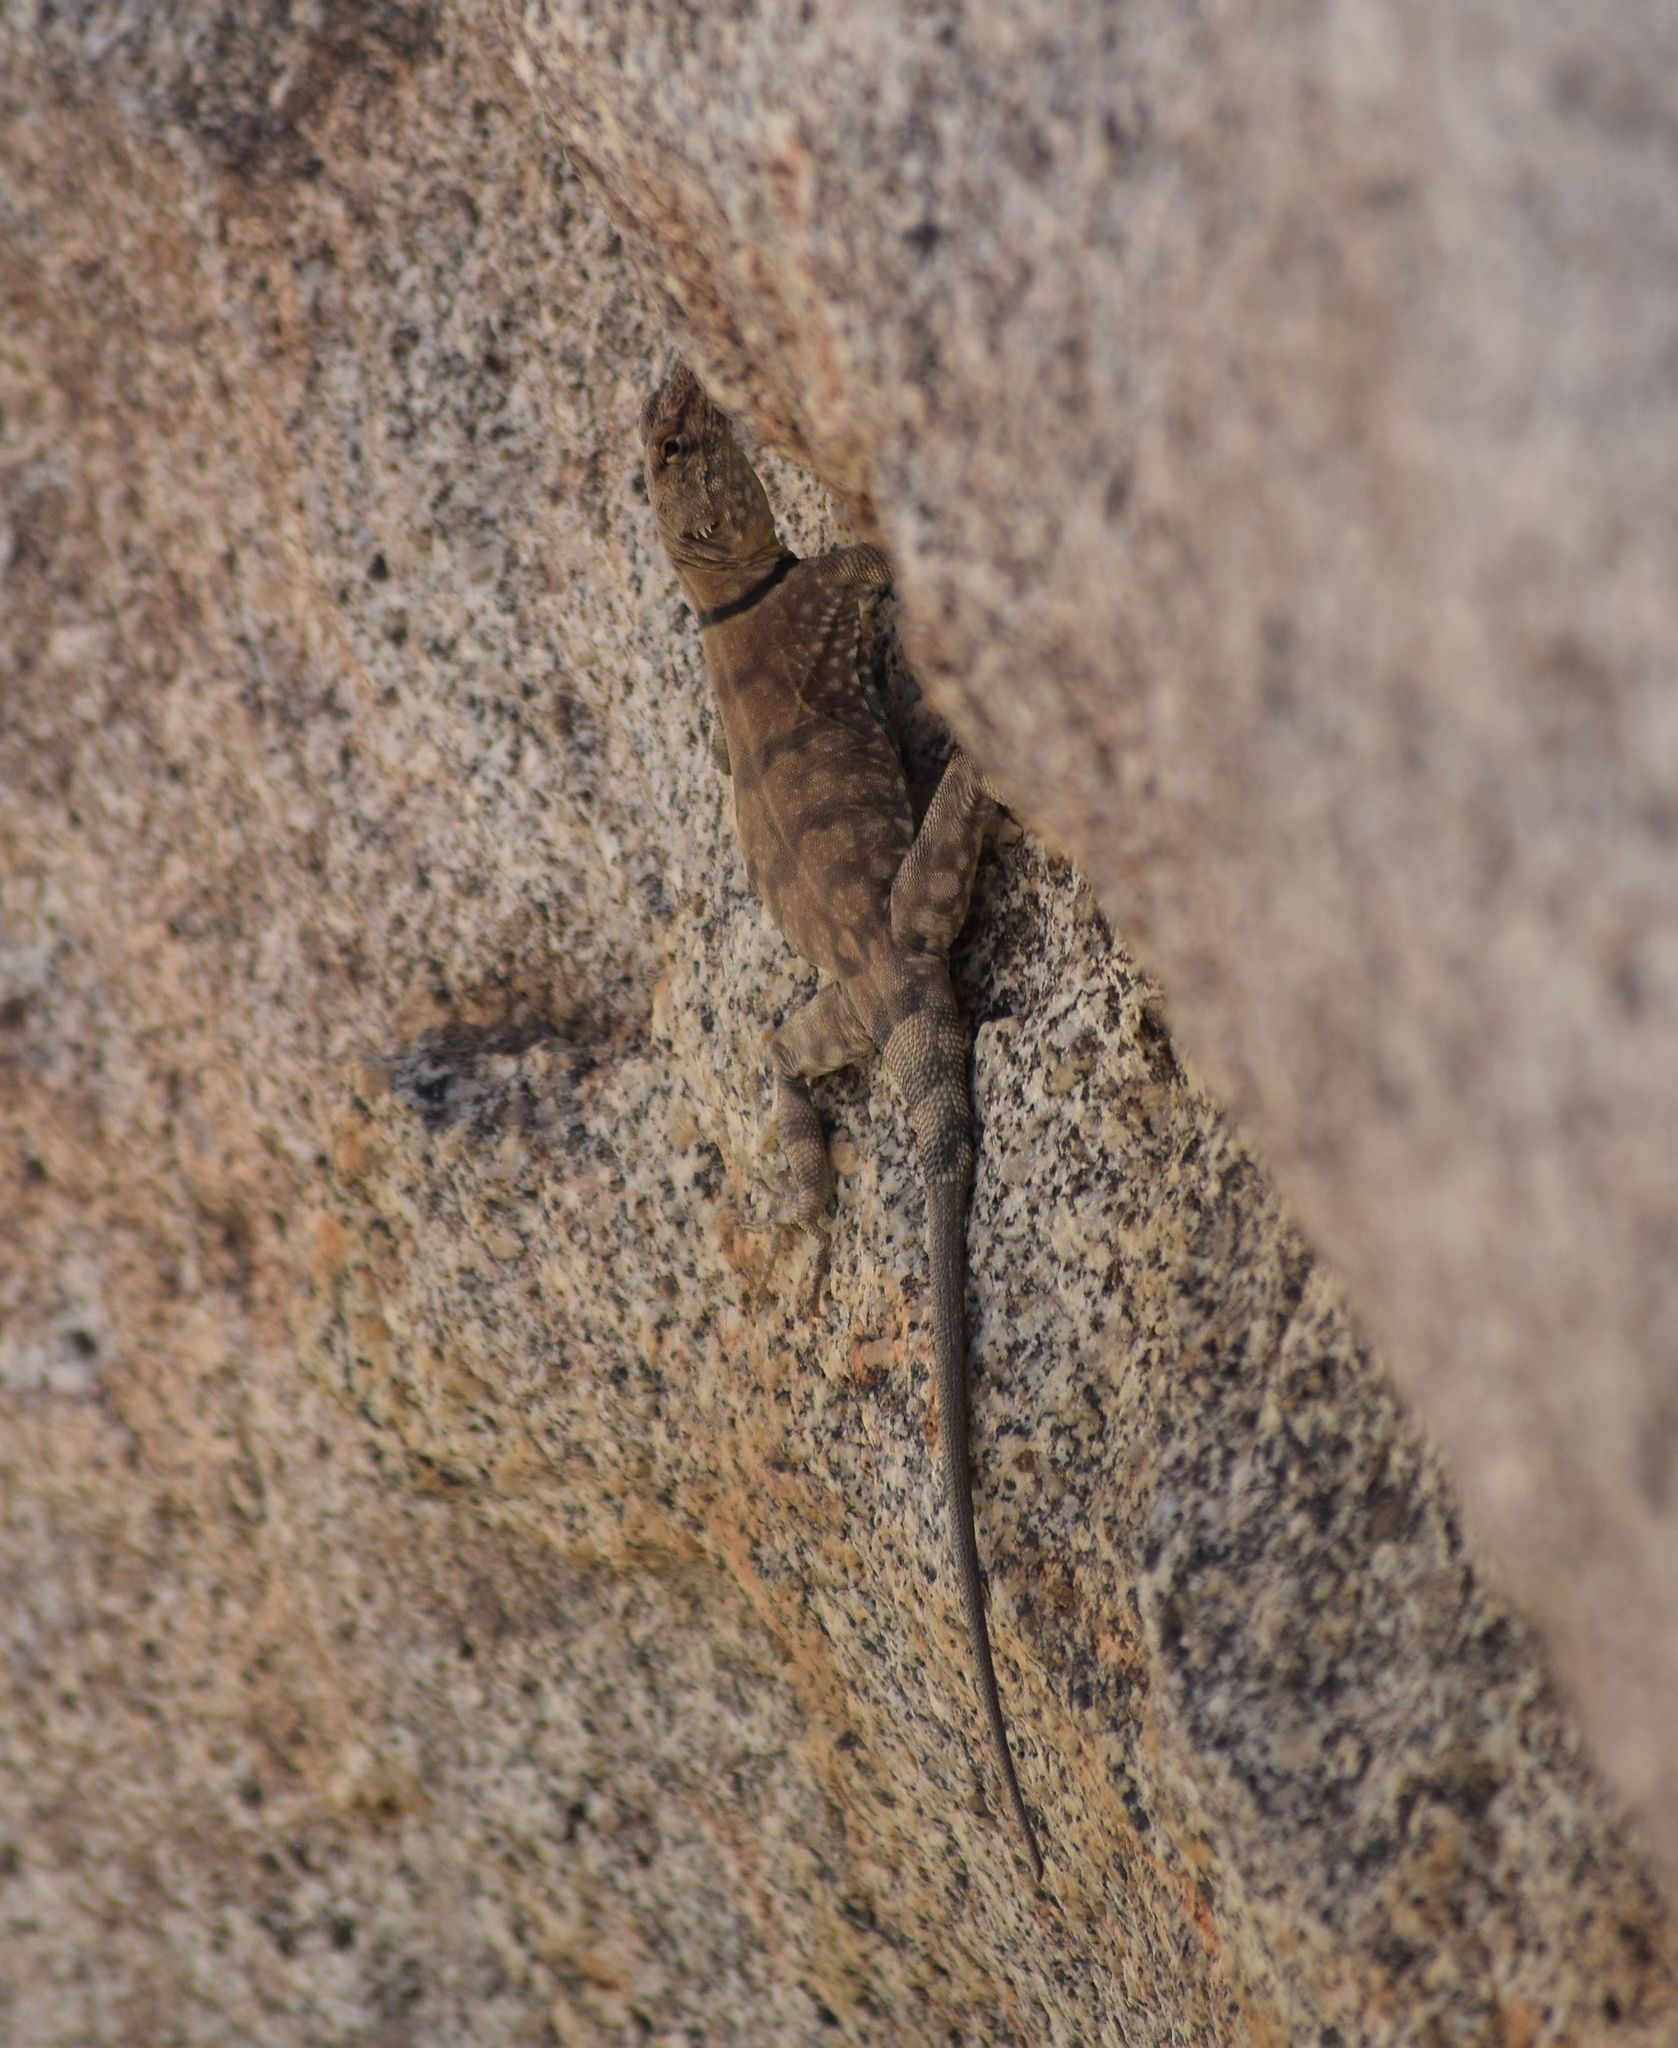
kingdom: Animalia
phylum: Chordata
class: Squamata
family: Phrynosomatidae
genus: Petrosaurus
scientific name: Petrosaurus mearnsi
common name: Banded rock lizard
